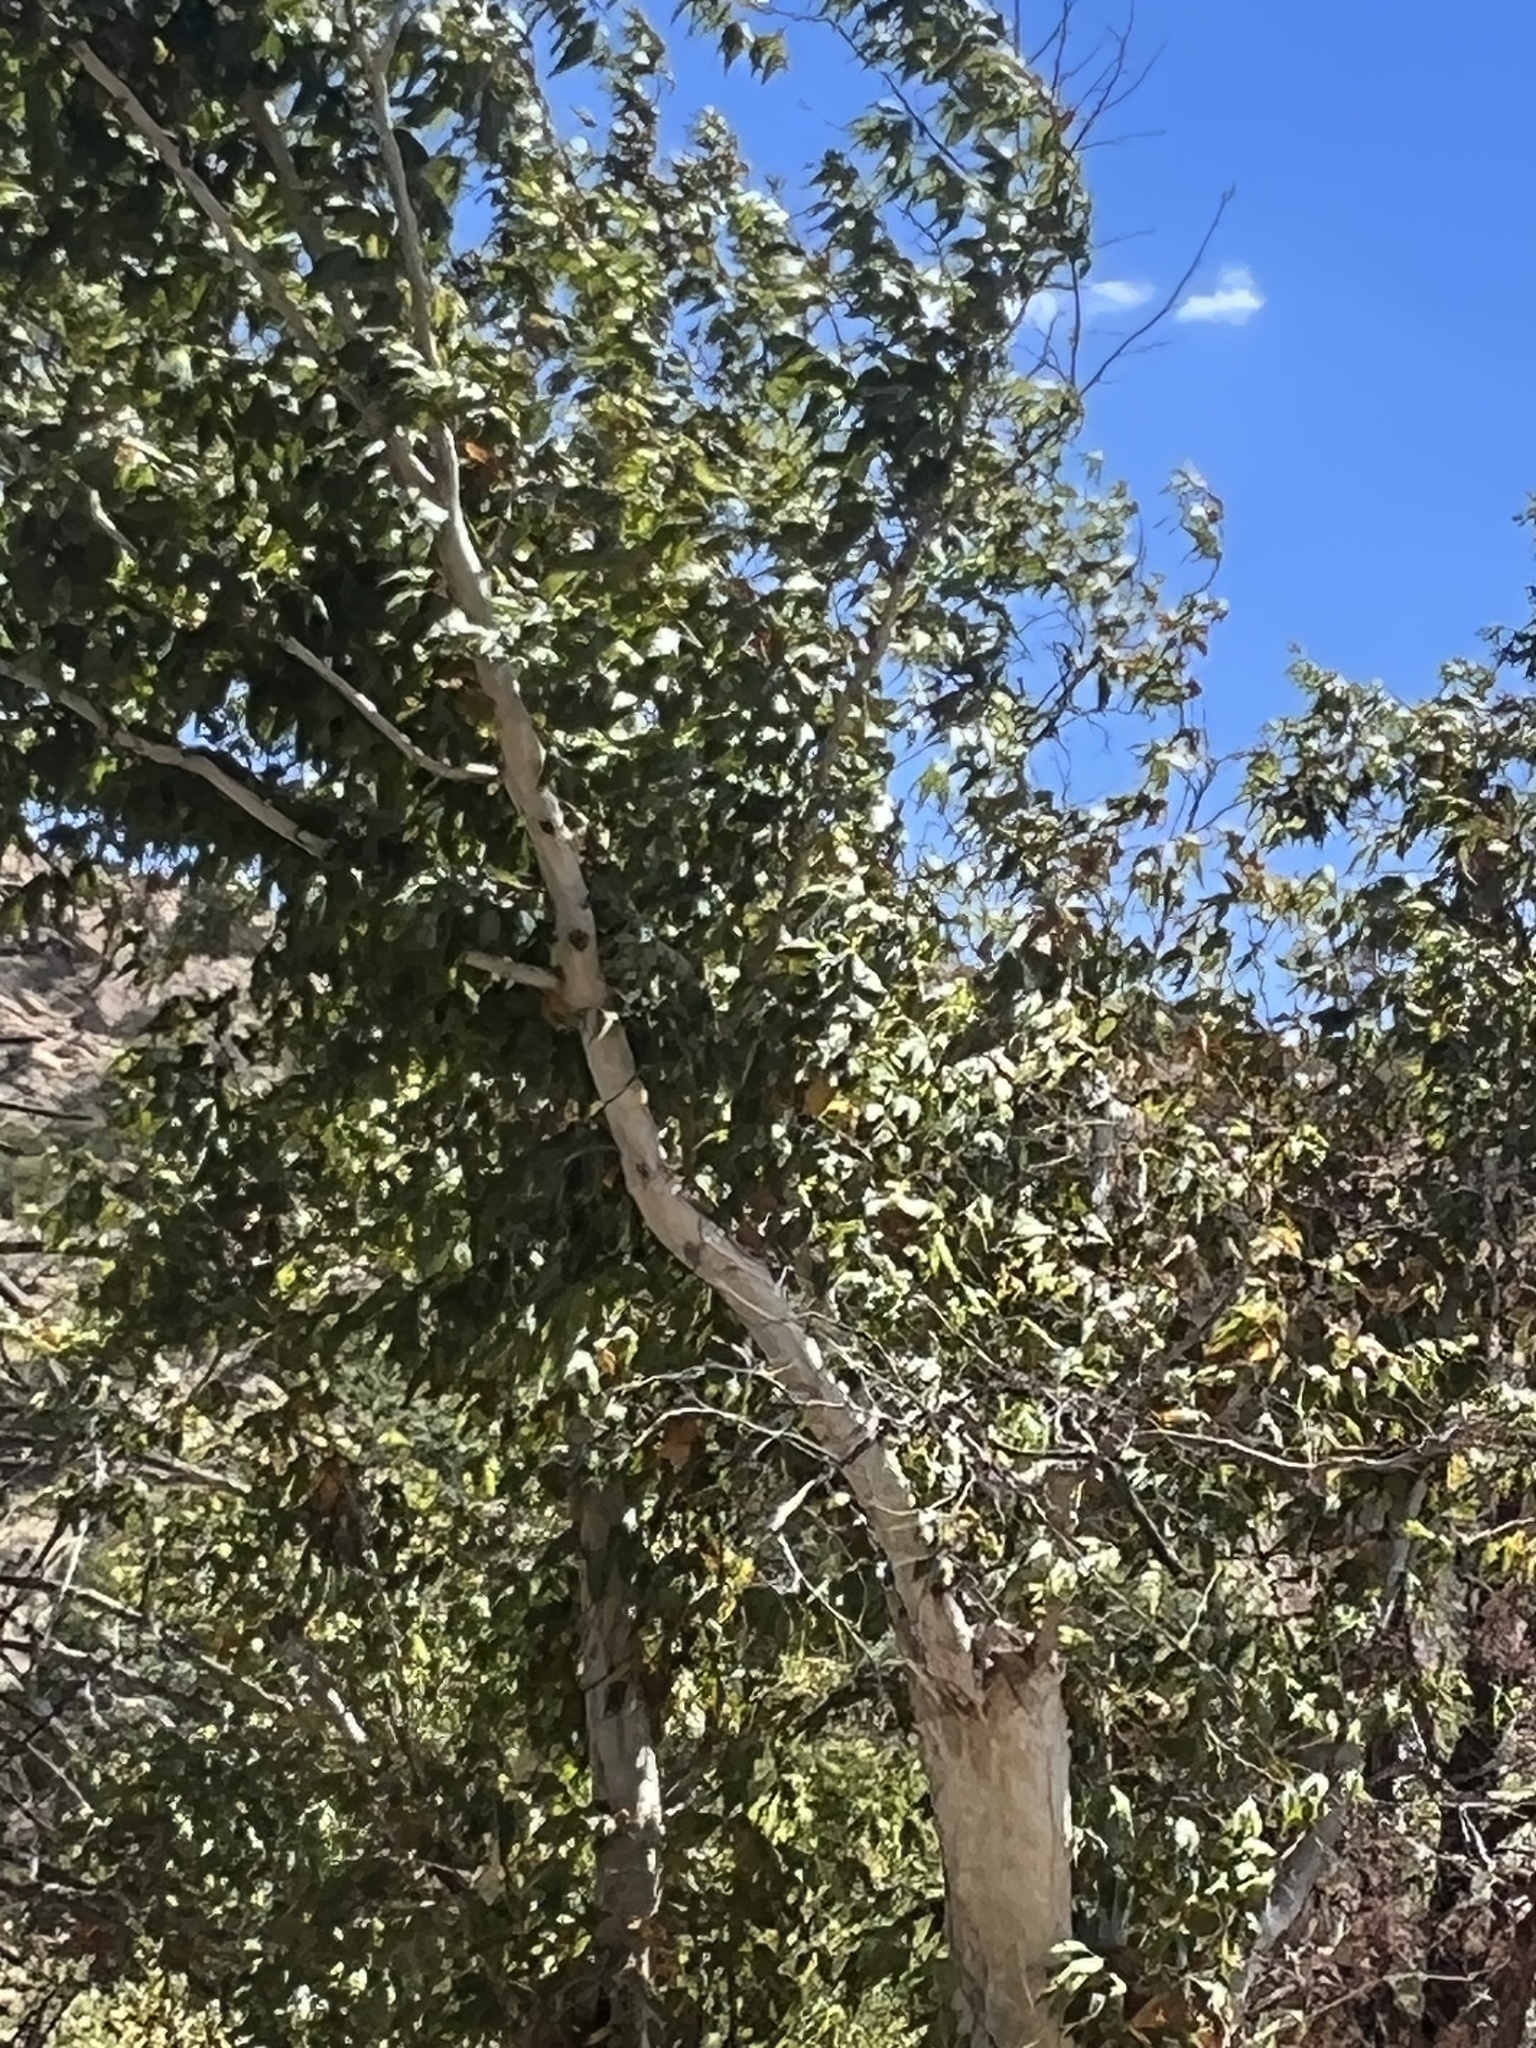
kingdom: Plantae
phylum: Tracheophyta
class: Magnoliopsida
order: Proteales
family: Platanaceae
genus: Platanus
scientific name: Platanus wrightii
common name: Arizona sycamore
